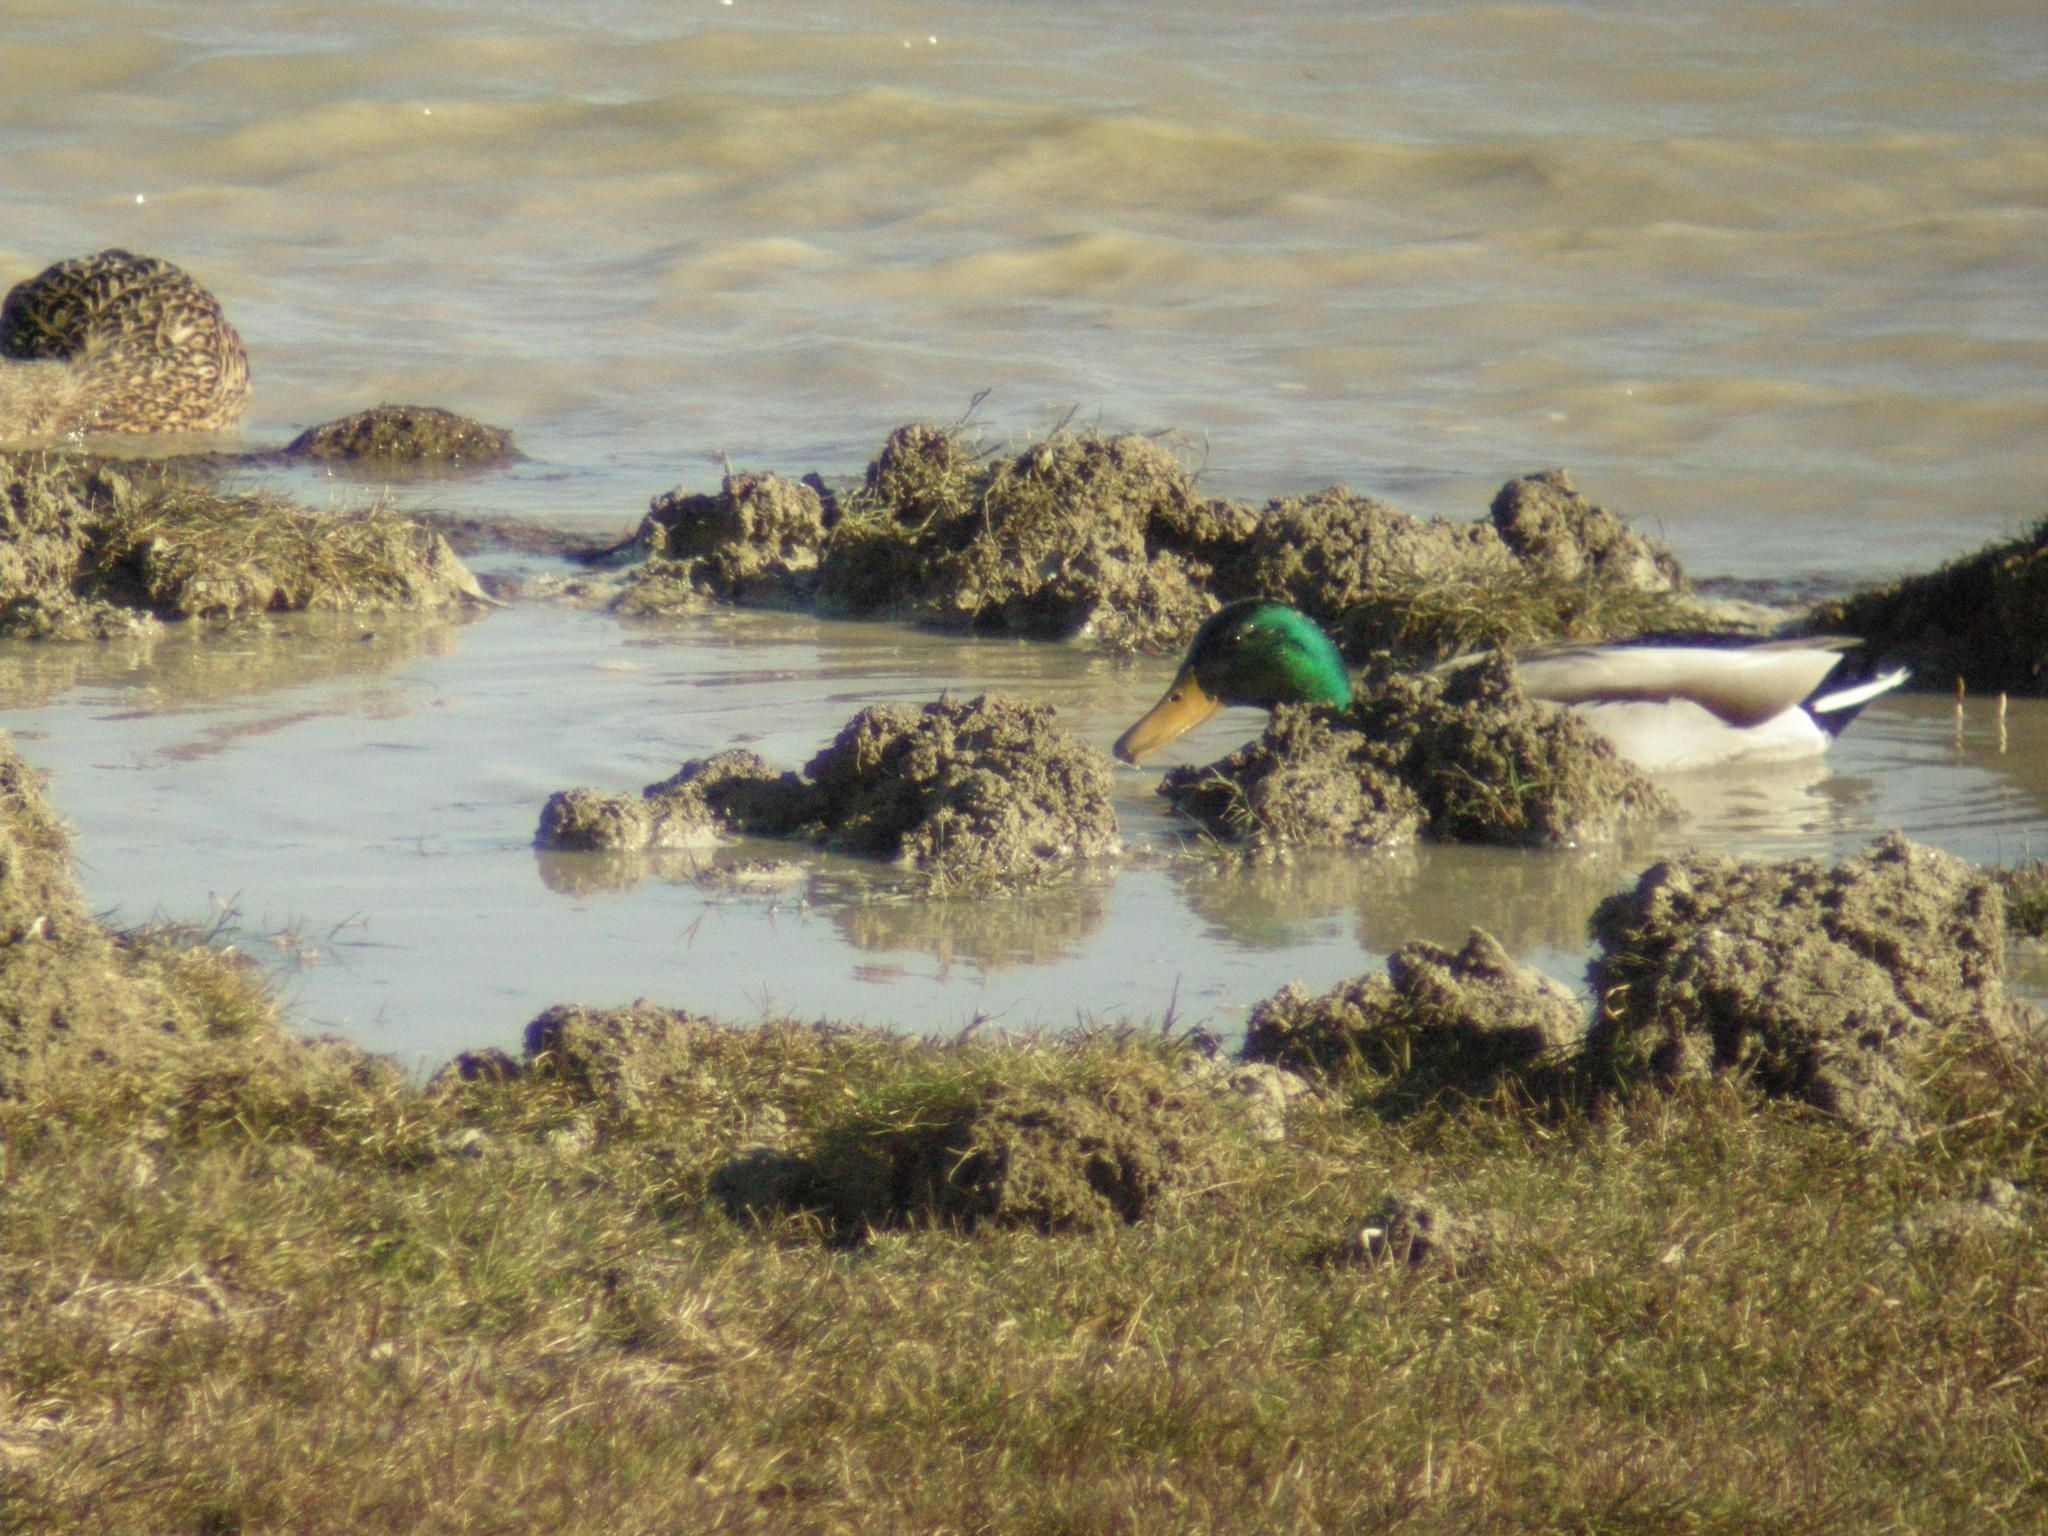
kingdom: Animalia
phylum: Chordata
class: Aves
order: Anseriformes
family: Anatidae
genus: Anas
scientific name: Anas platyrhynchos
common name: Mallard
